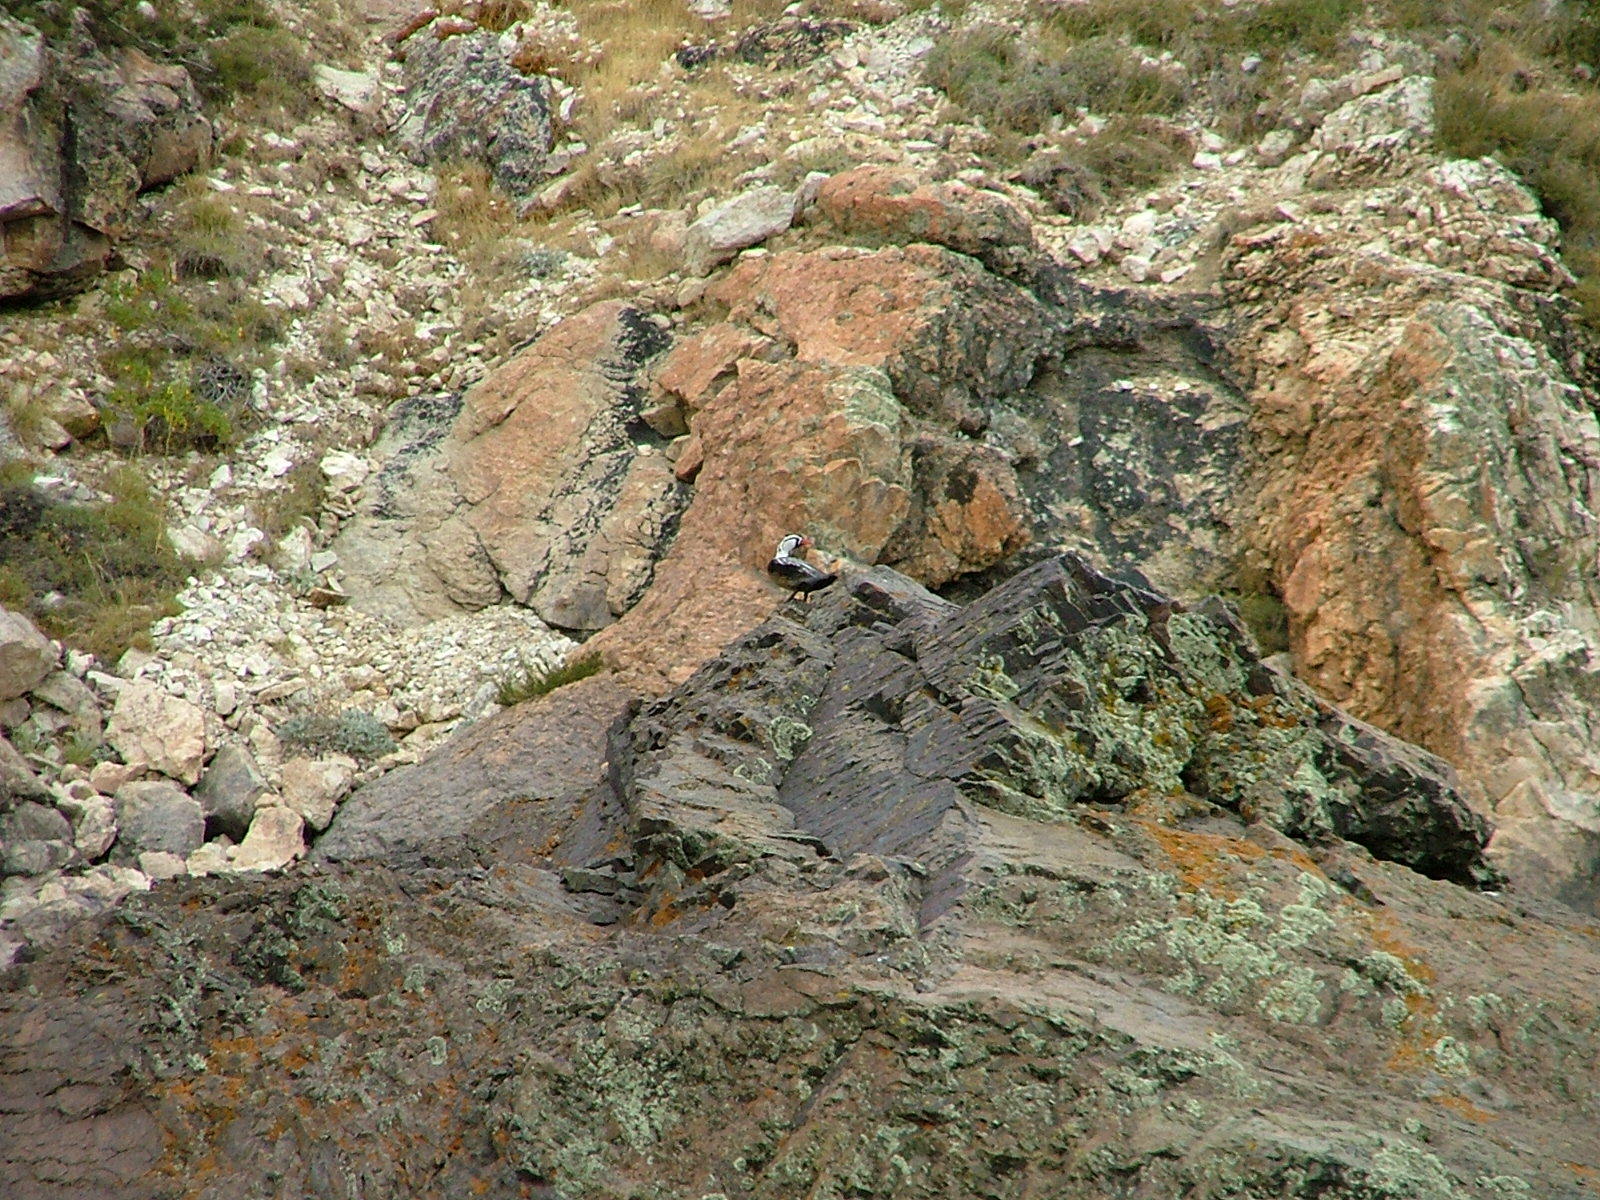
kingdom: Animalia
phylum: Chordata
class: Aves
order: Anseriformes
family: Anatidae
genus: Merganetta
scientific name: Merganetta armata
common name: Torrent duck
